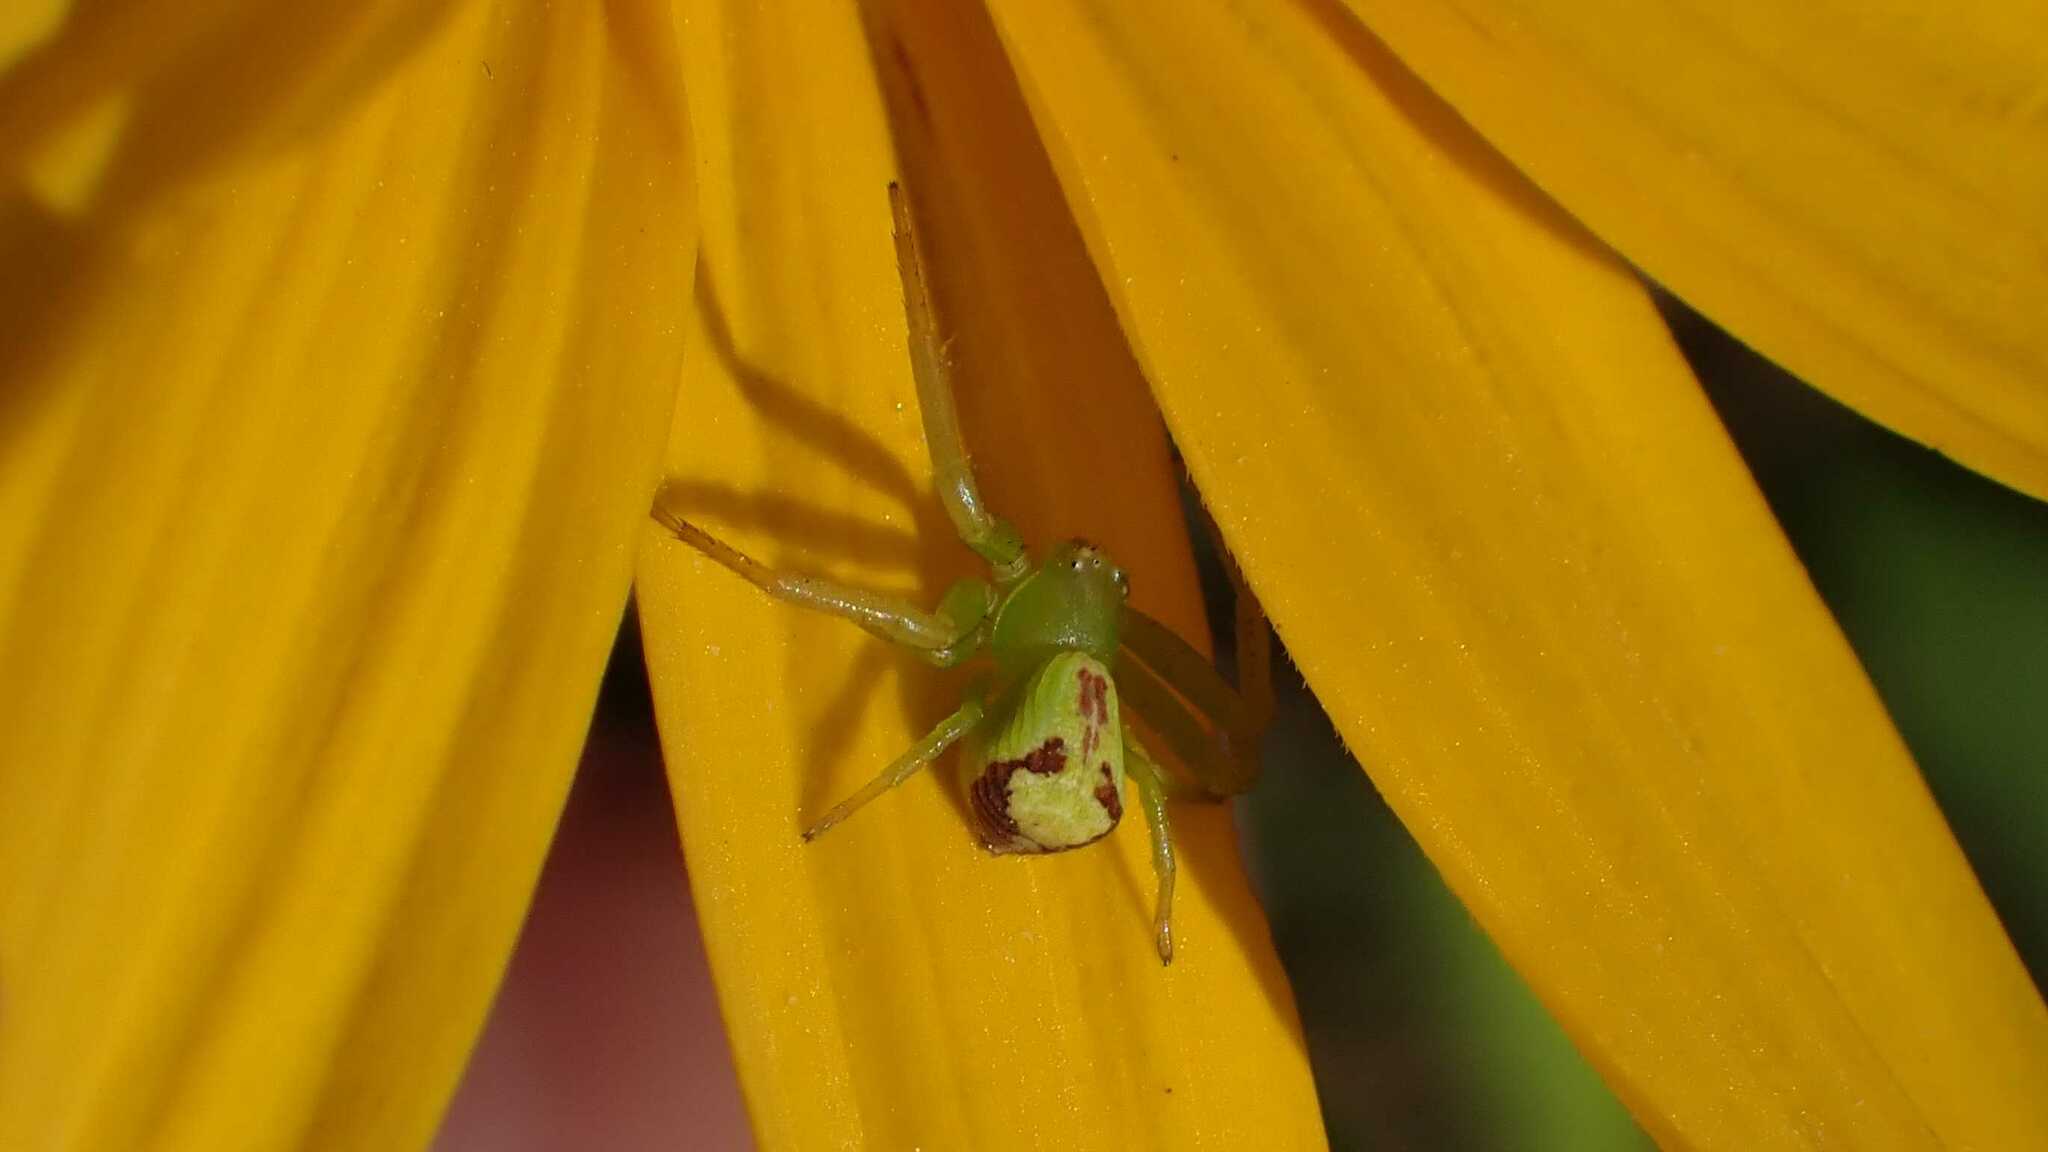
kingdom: Animalia
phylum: Arthropoda
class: Arachnida
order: Araneae
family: Thomisidae
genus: Ebrechtella
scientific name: Ebrechtella tricuspidata
